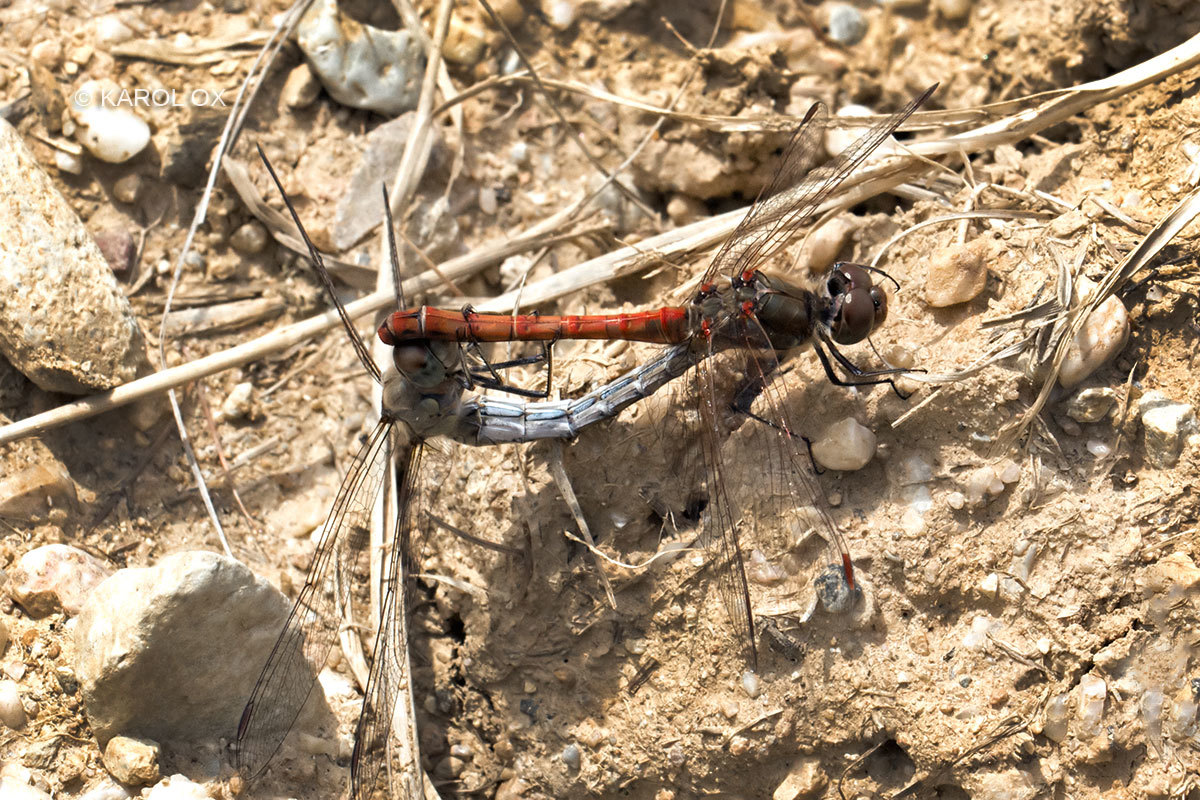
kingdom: Animalia
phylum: Arthropoda
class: Insecta
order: Odonata
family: Libellulidae
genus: Sympetrum
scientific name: Sympetrum striolatum
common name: Common darter
